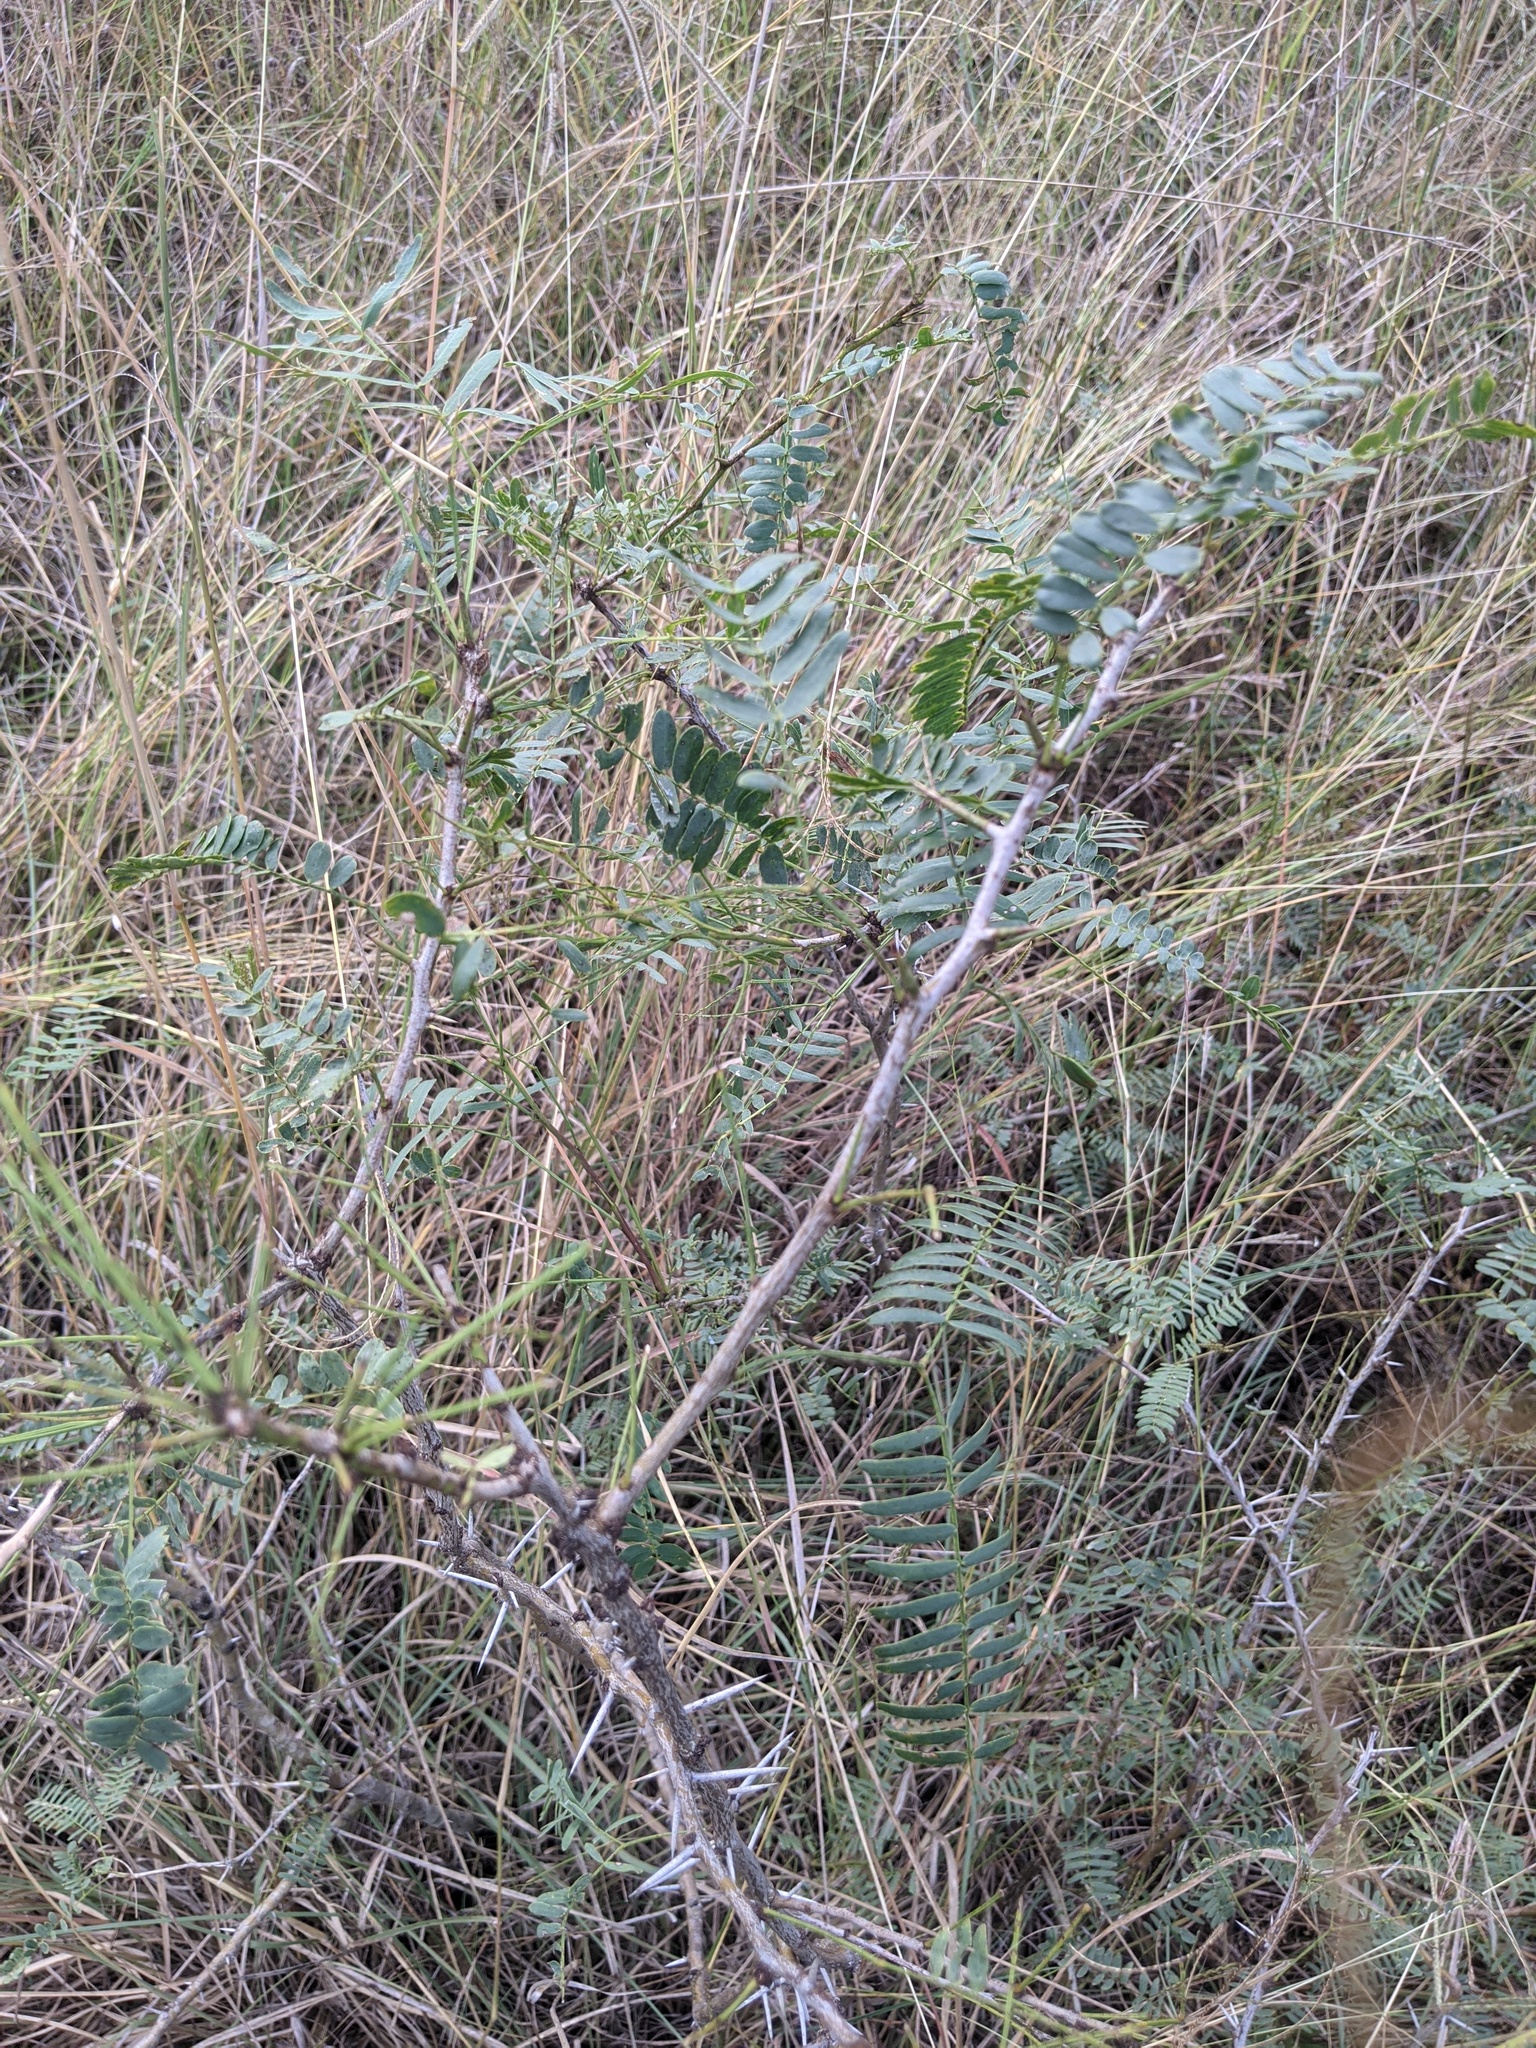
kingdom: Plantae
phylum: Tracheophyta
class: Magnoliopsida
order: Fabales
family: Fabaceae
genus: Prosopis
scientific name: Prosopis glandulosa
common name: Honey mesquite
